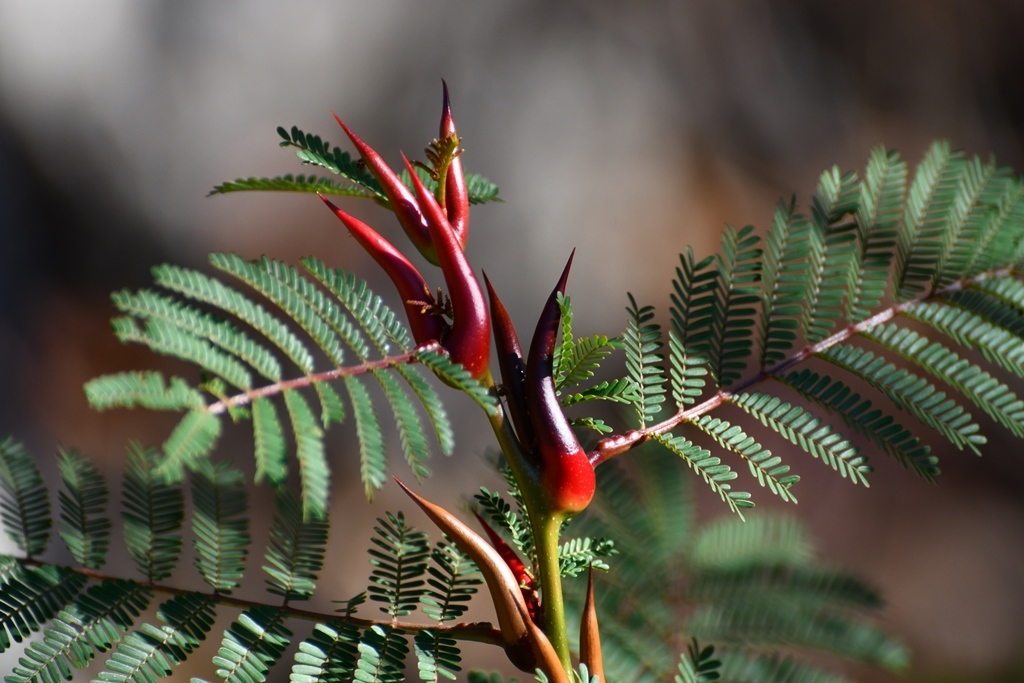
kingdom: Plantae
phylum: Tracheophyta
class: Magnoliopsida
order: Fabales
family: Fabaceae
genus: Vachellia
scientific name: Vachellia cornigera
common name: Bullhorn wattle
